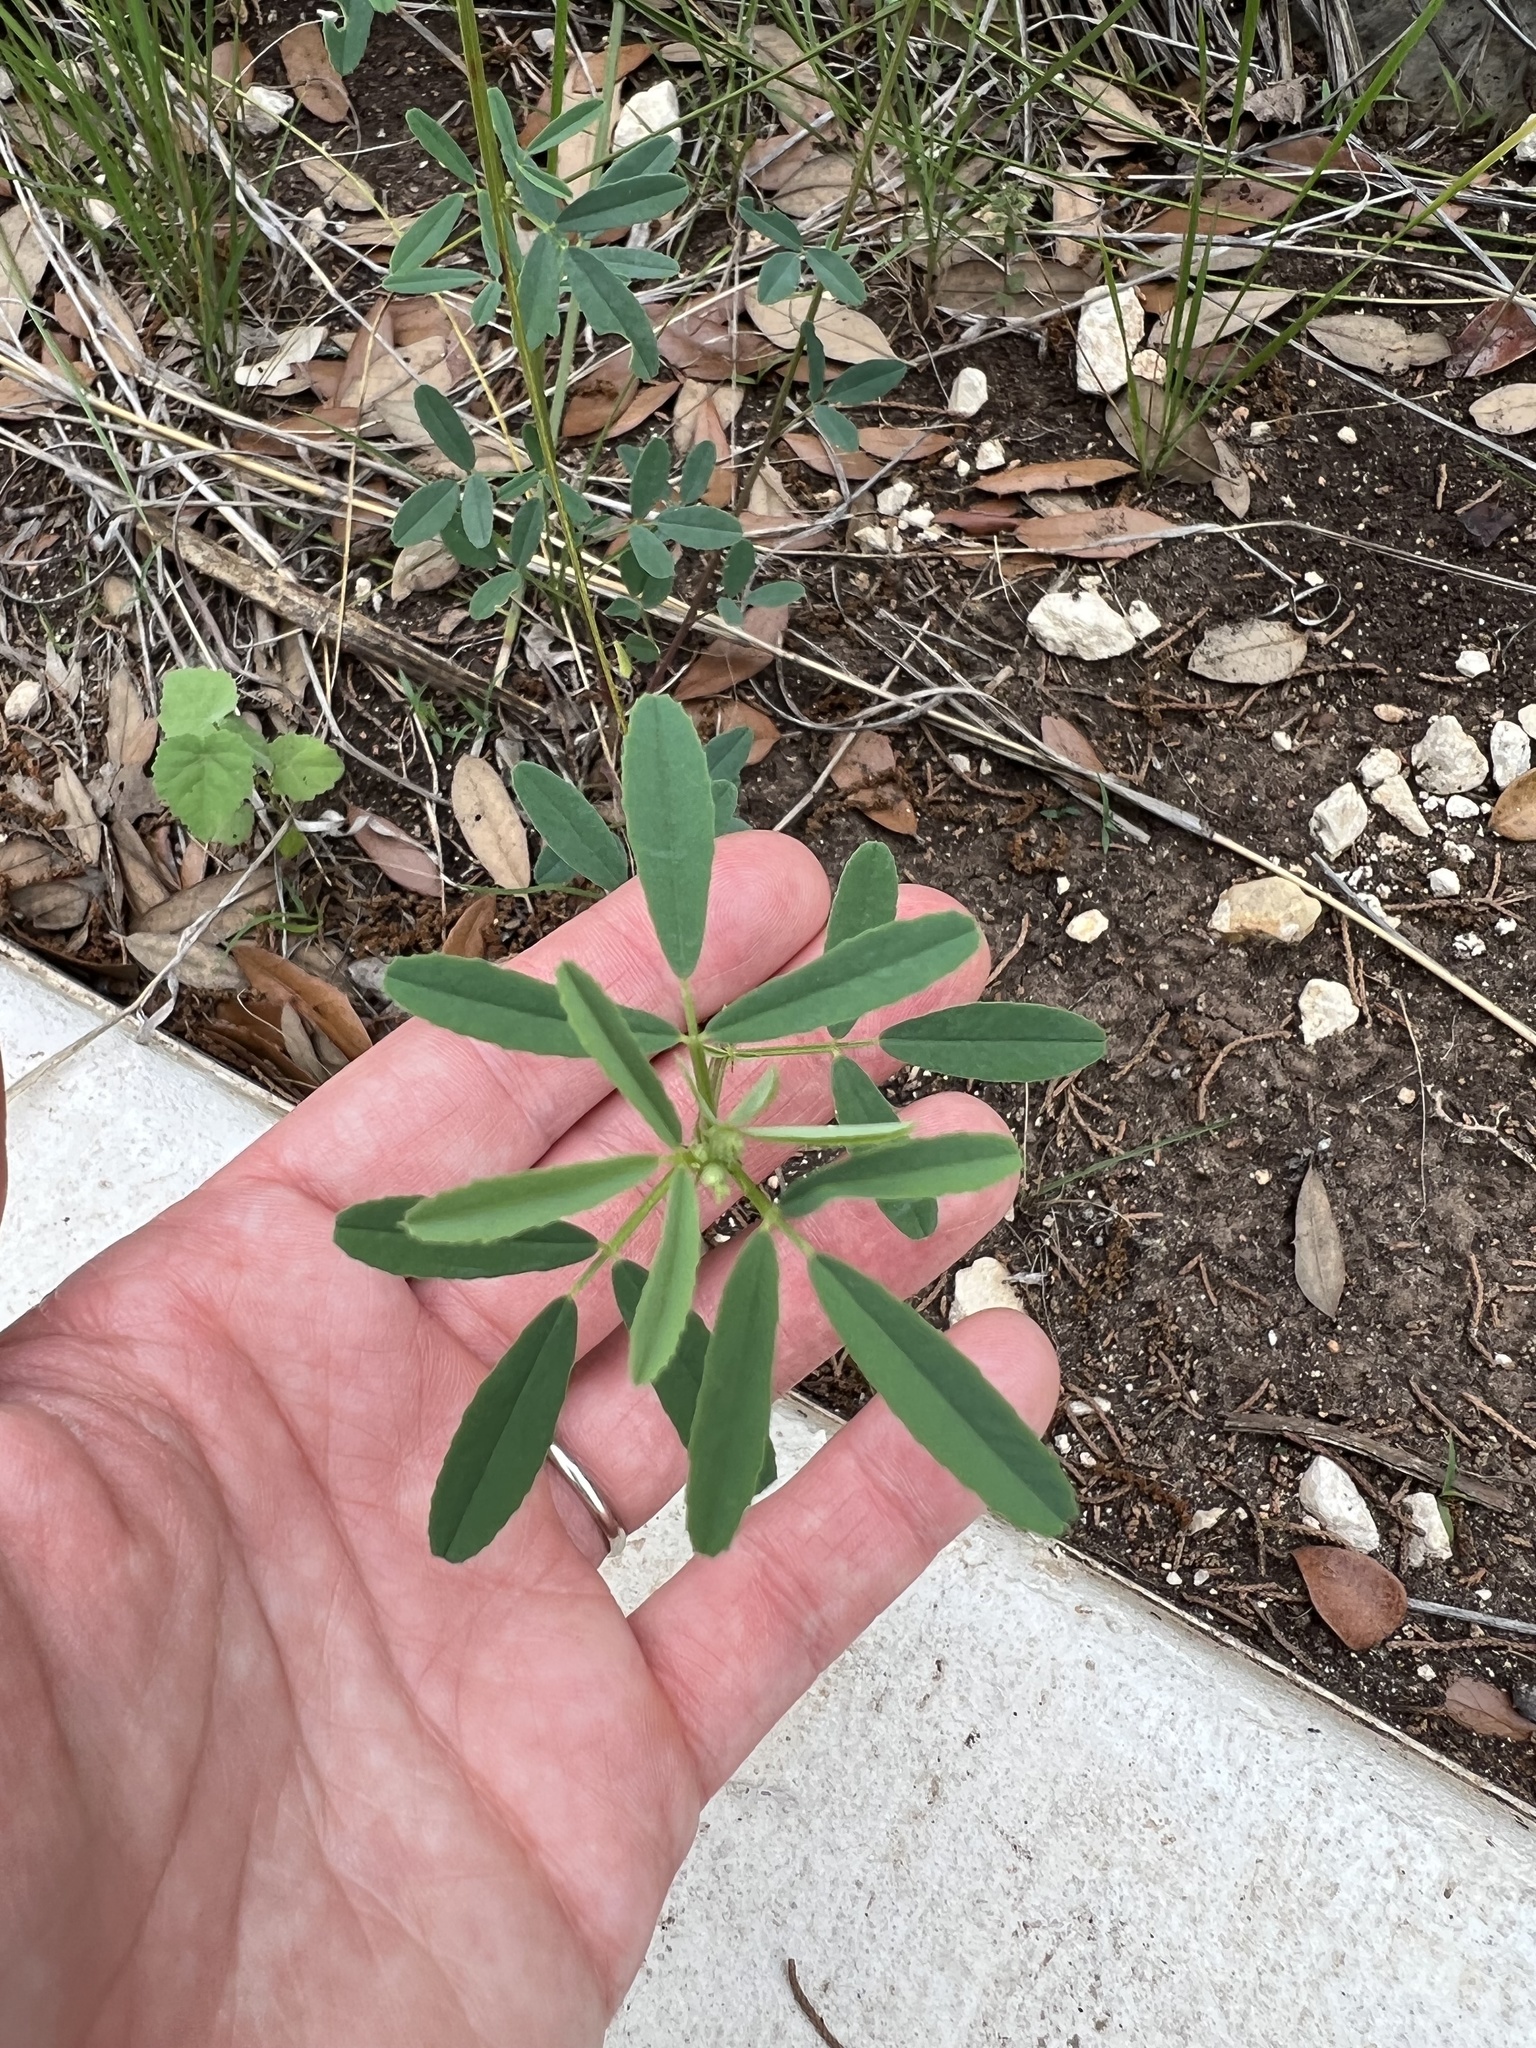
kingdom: Plantae
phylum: Tracheophyta
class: Magnoliopsida
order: Fabales
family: Fabaceae
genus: Melilotus
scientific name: Melilotus albus
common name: White melilot
